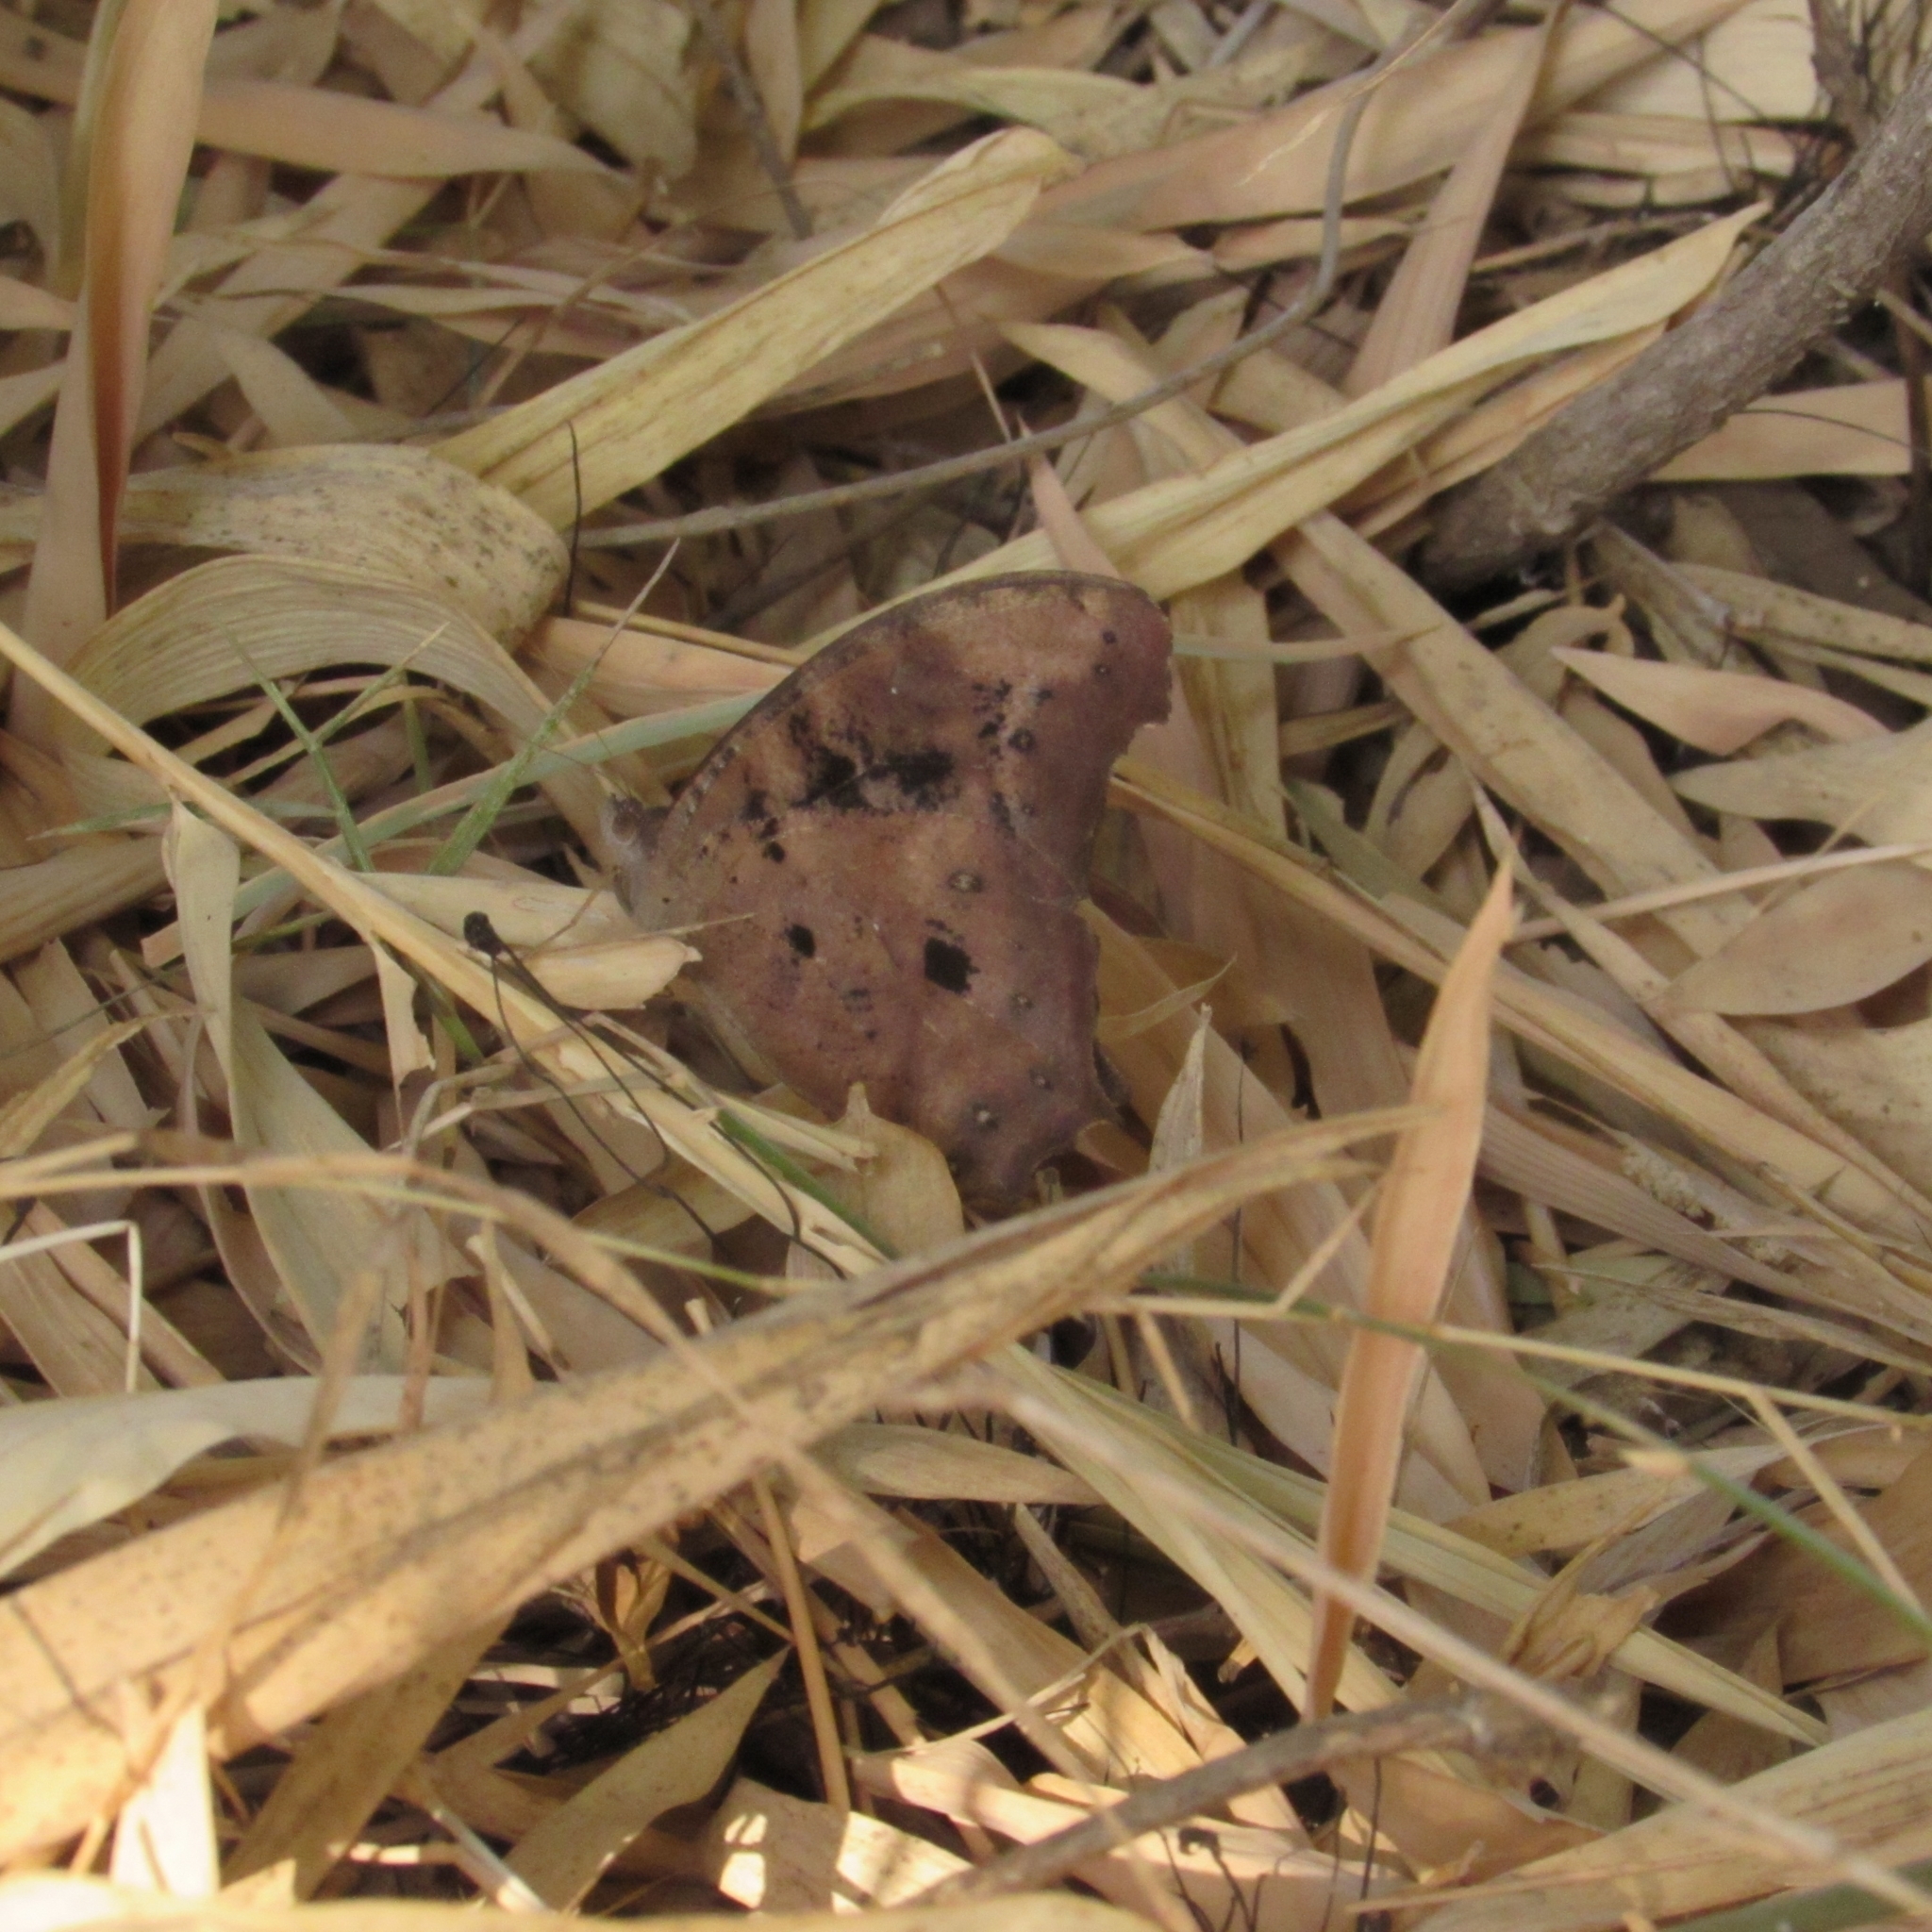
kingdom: Animalia
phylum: Arthropoda
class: Insecta
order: Lepidoptera
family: Nymphalidae
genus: Melanitis
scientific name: Melanitis leda
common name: Twilight brown
